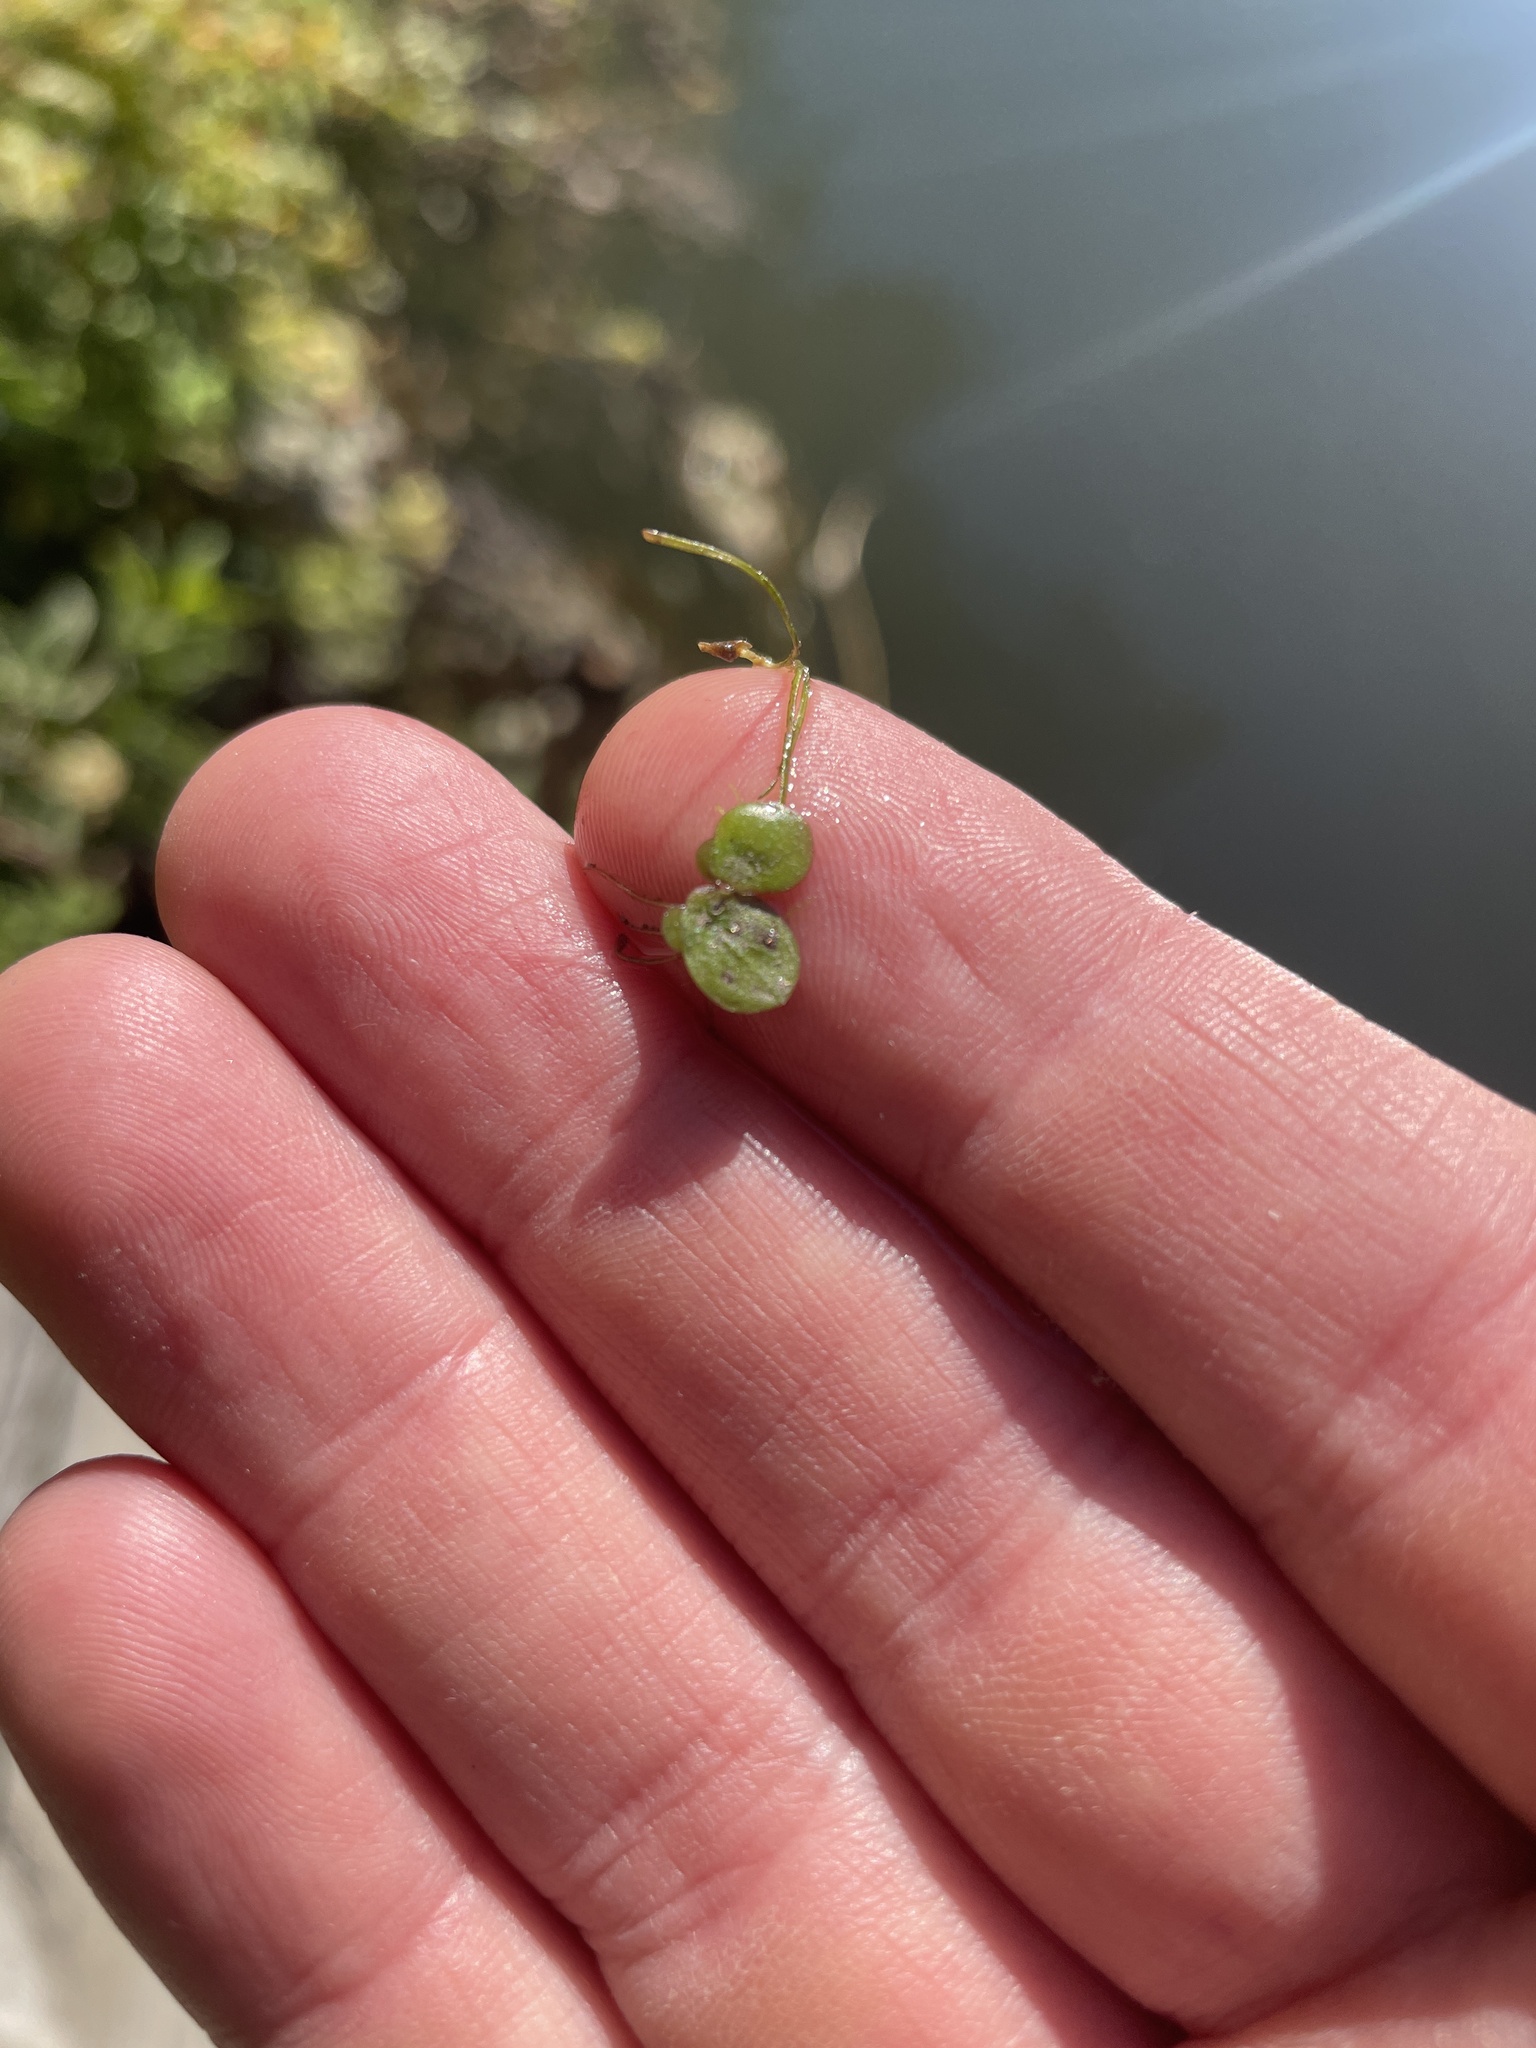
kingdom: Plantae
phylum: Tracheophyta
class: Liliopsida
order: Alismatales
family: Araceae
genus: Spirodela
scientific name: Spirodela polyrhiza
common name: Great duckweed
